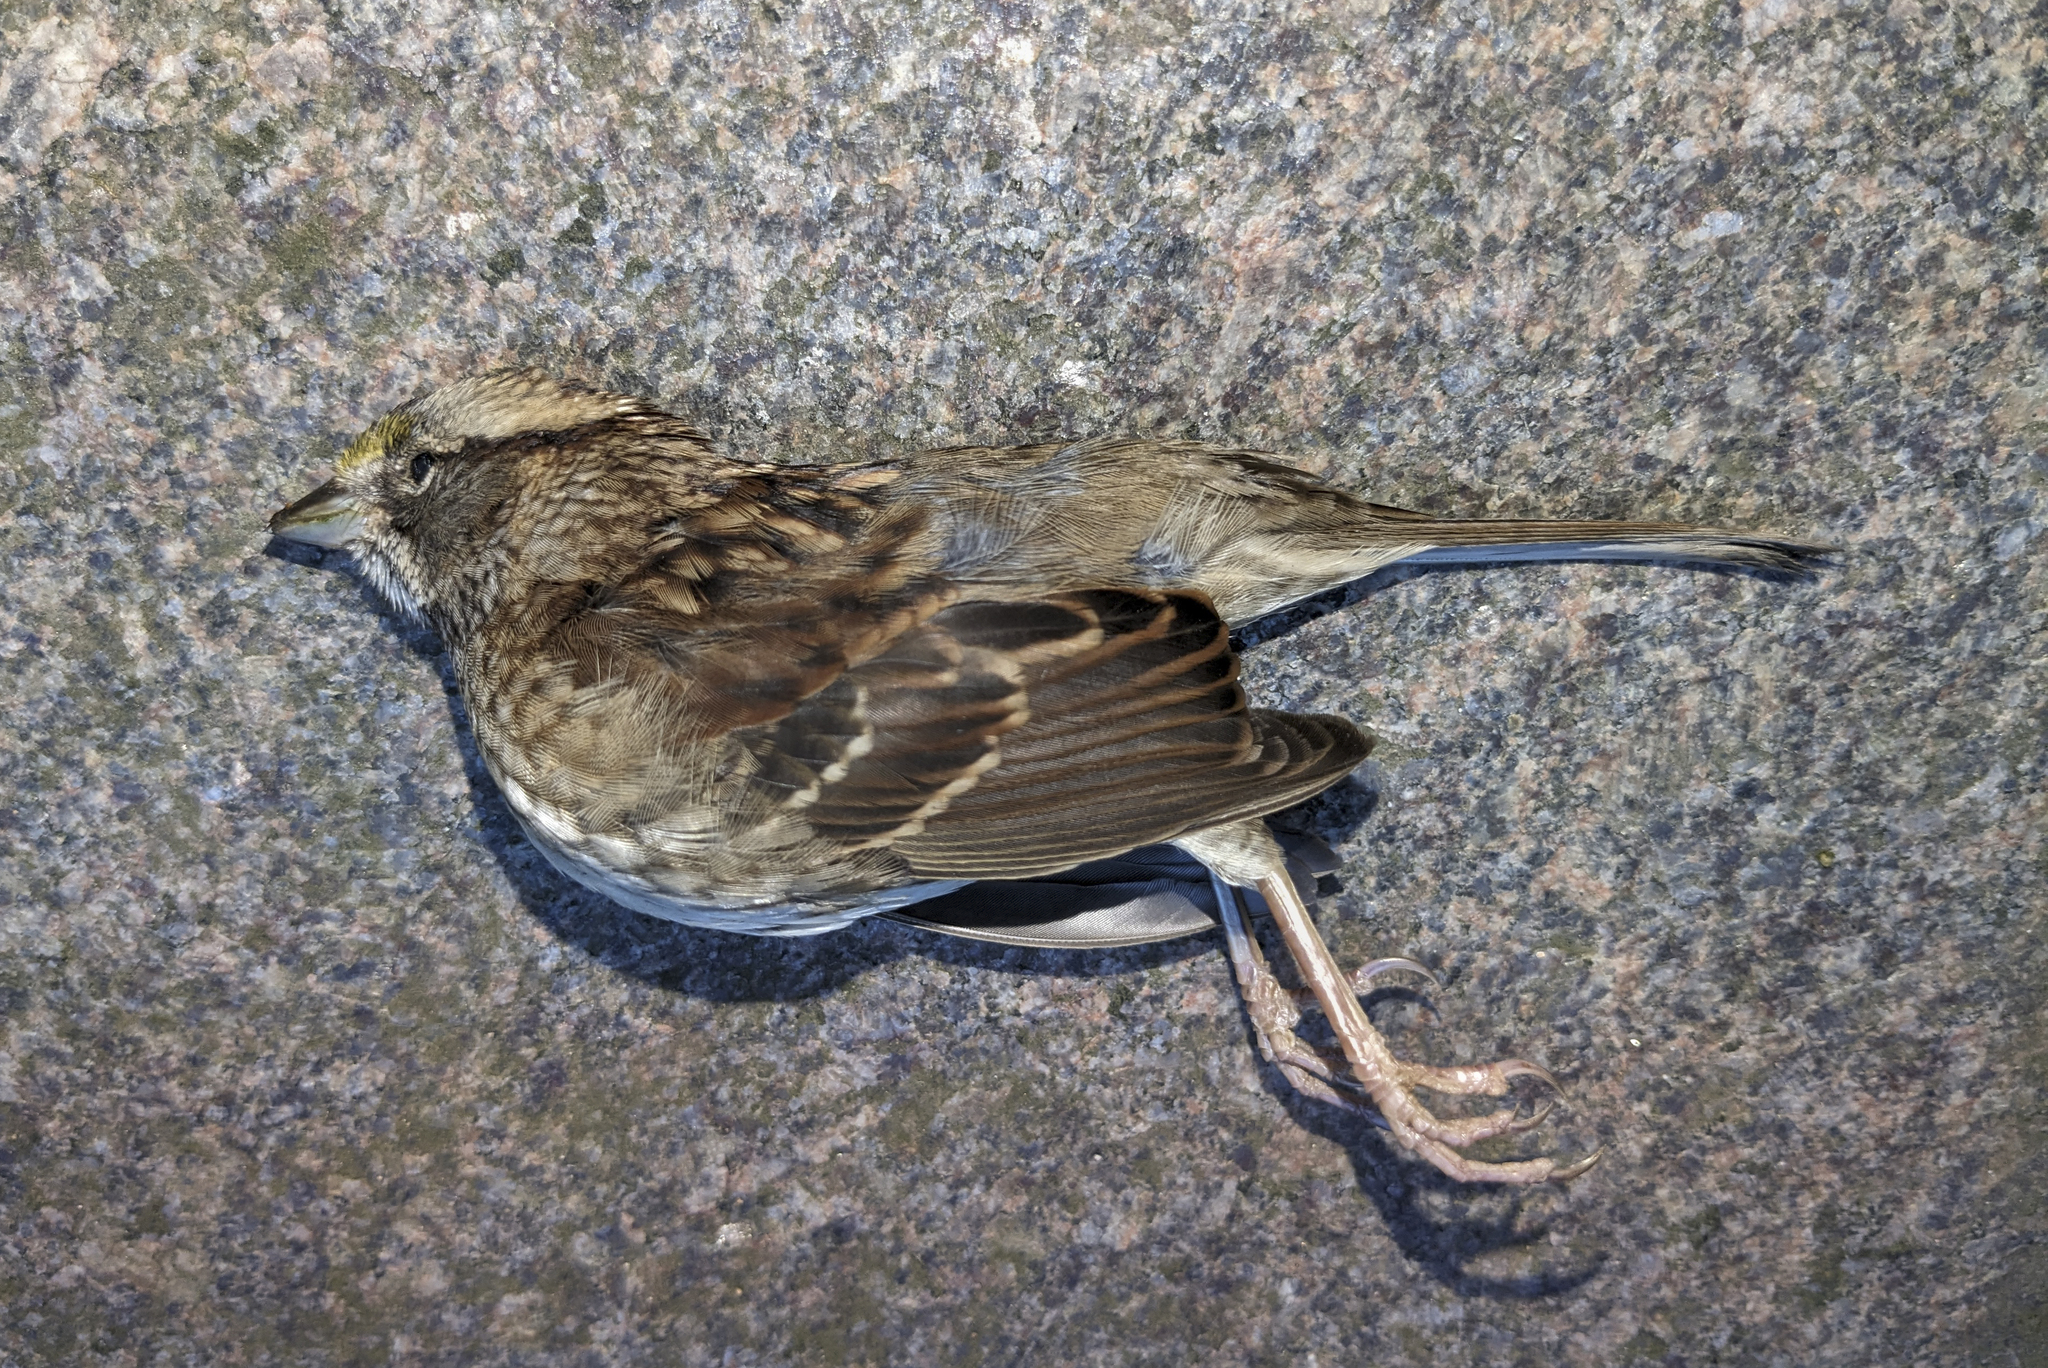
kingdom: Animalia
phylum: Chordata
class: Aves
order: Passeriformes
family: Passerellidae
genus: Zonotrichia
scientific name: Zonotrichia albicollis
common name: White-throated sparrow
